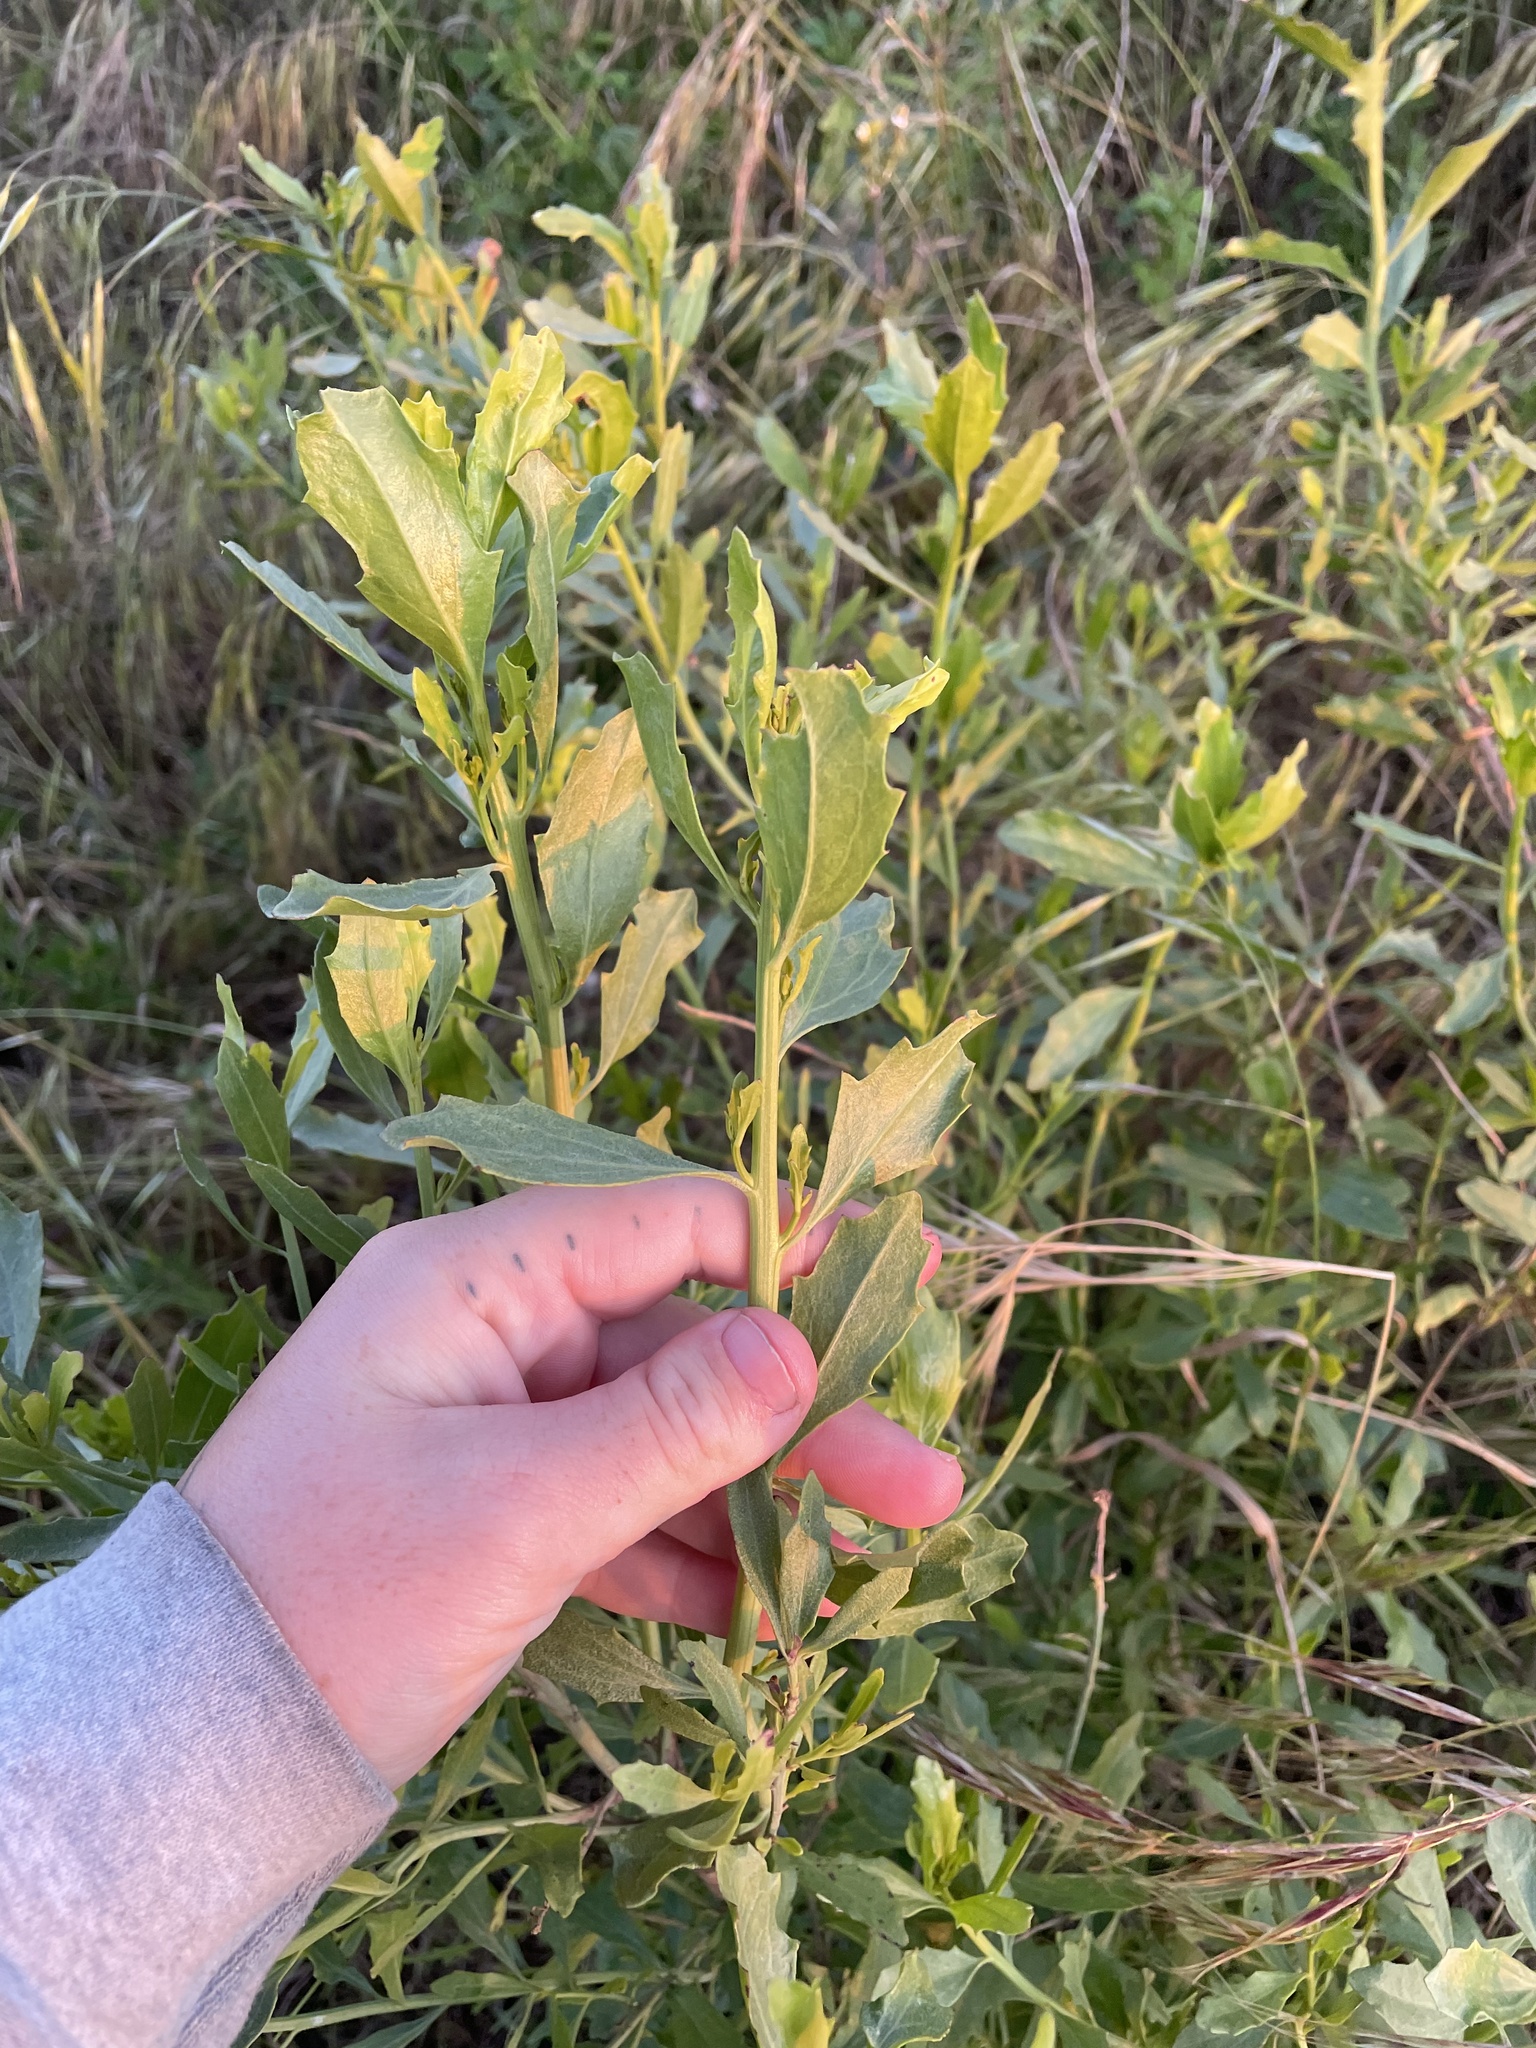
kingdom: Plantae
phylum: Tracheophyta
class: Magnoliopsida
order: Asterales
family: Asteraceae
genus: Baccharis
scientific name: Baccharis salicina
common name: Willow baccharis
